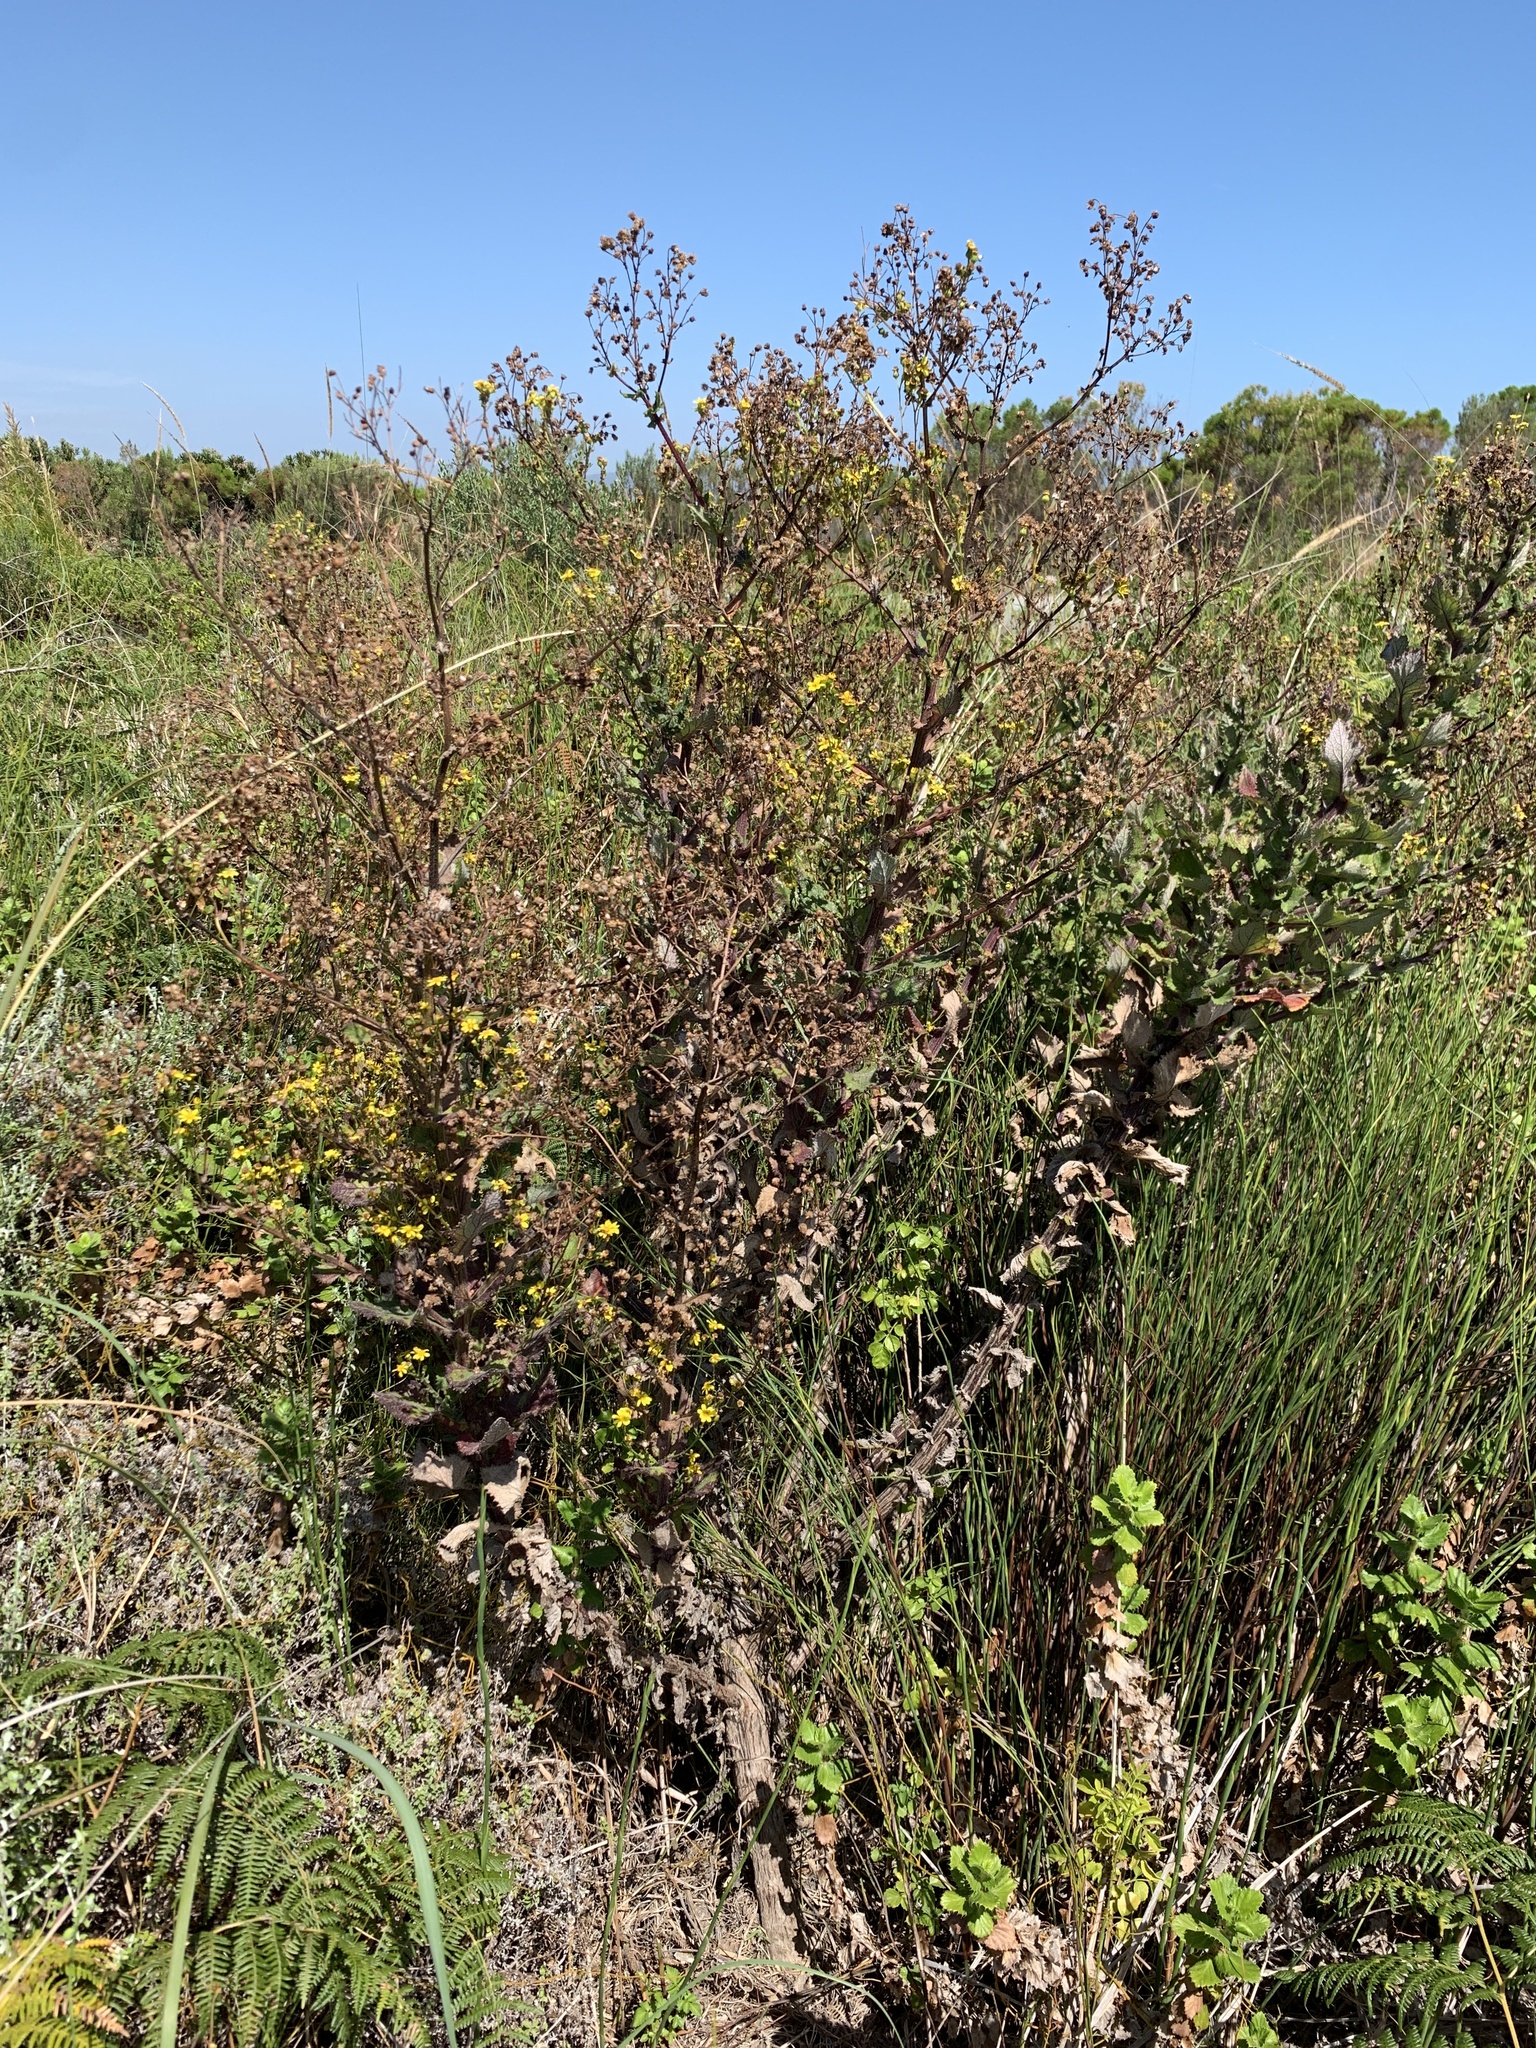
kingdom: Plantae
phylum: Tracheophyta
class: Magnoliopsida
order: Asterales
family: Asteraceae
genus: Senecio
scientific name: Senecio subcanescens
